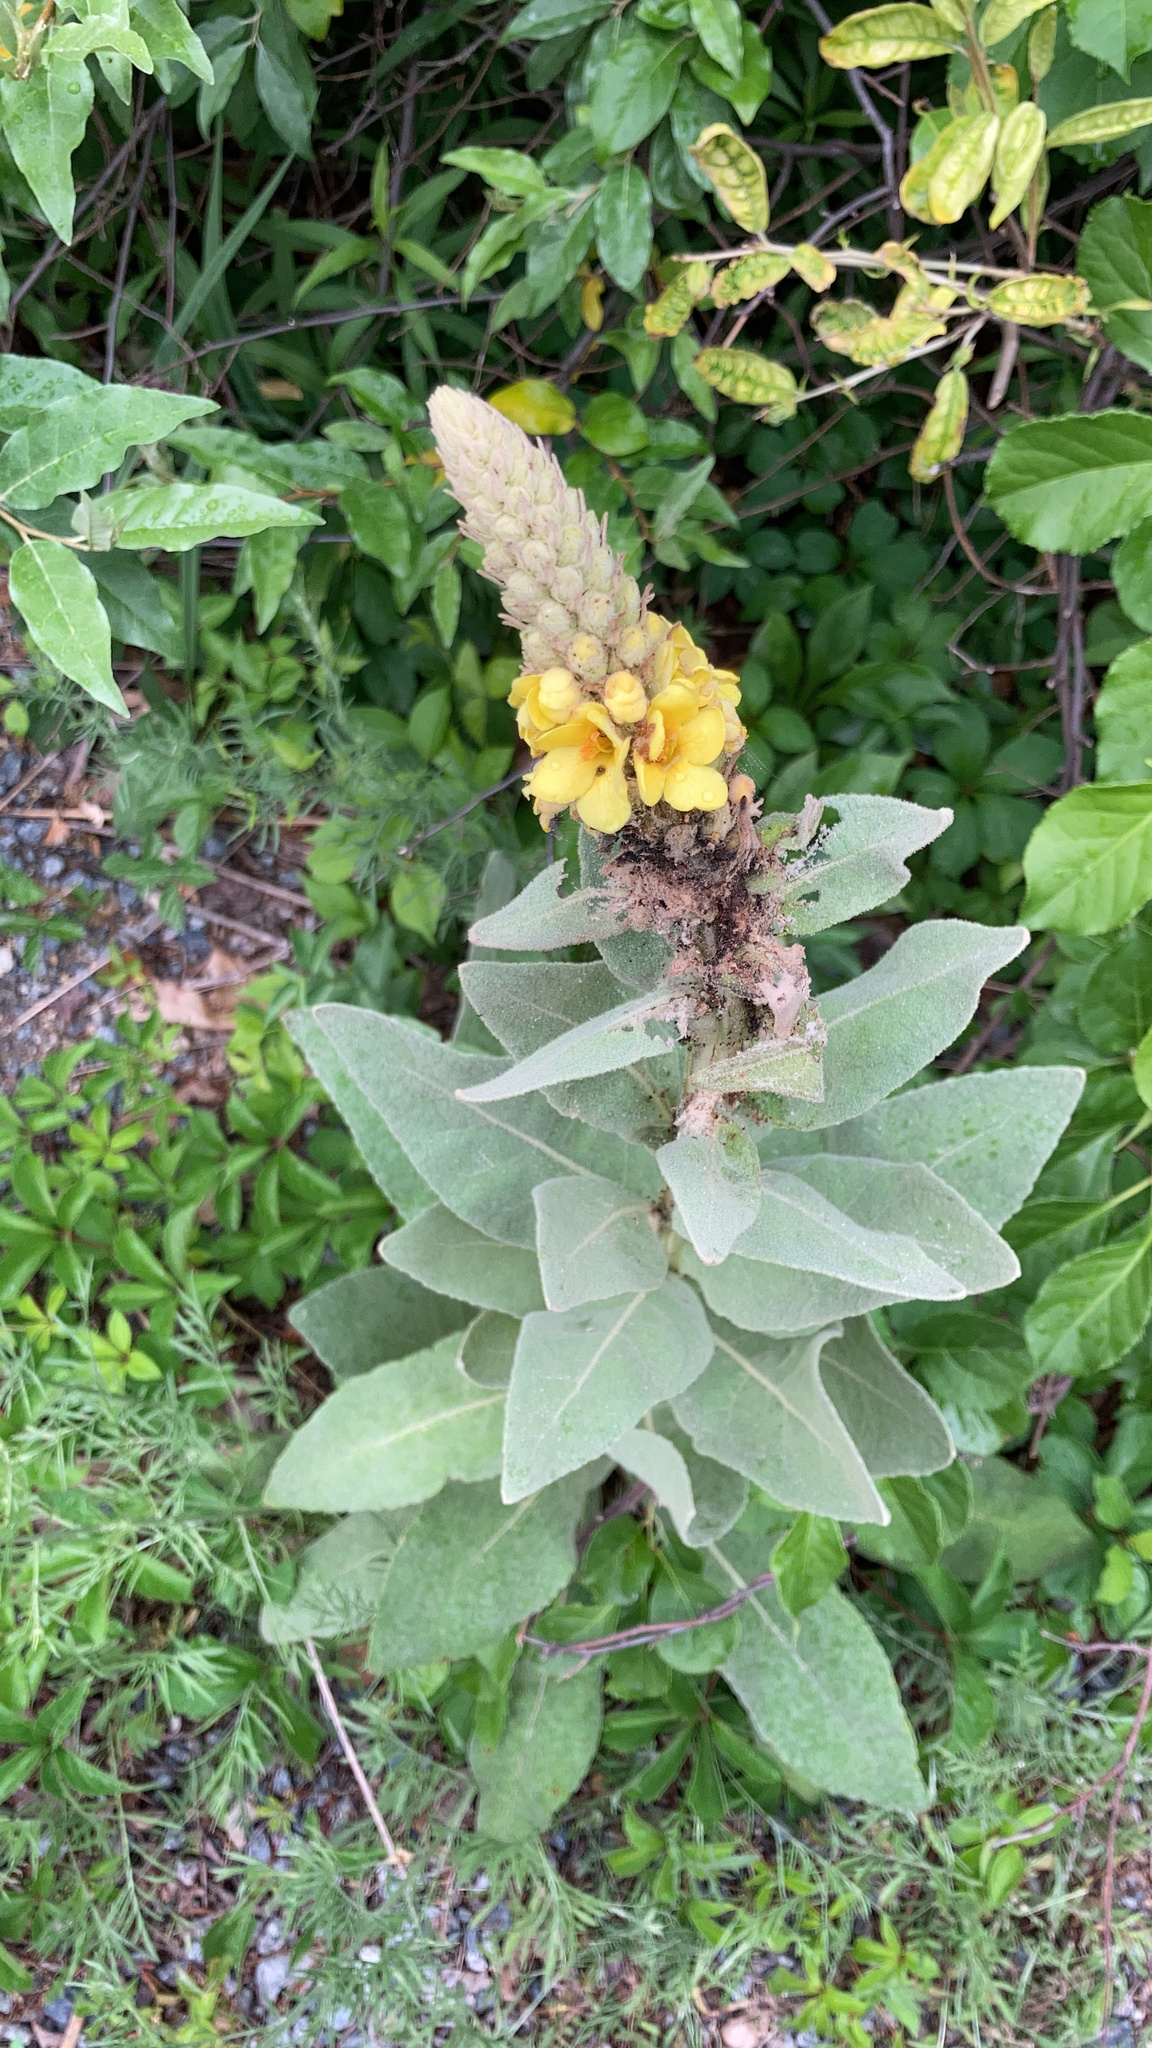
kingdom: Plantae
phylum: Tracheophyta
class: Magnoliopsida
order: Lamiales
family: Scrophulariaceae
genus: Verbascum
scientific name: Verbascum thapsus
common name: Common mullein
